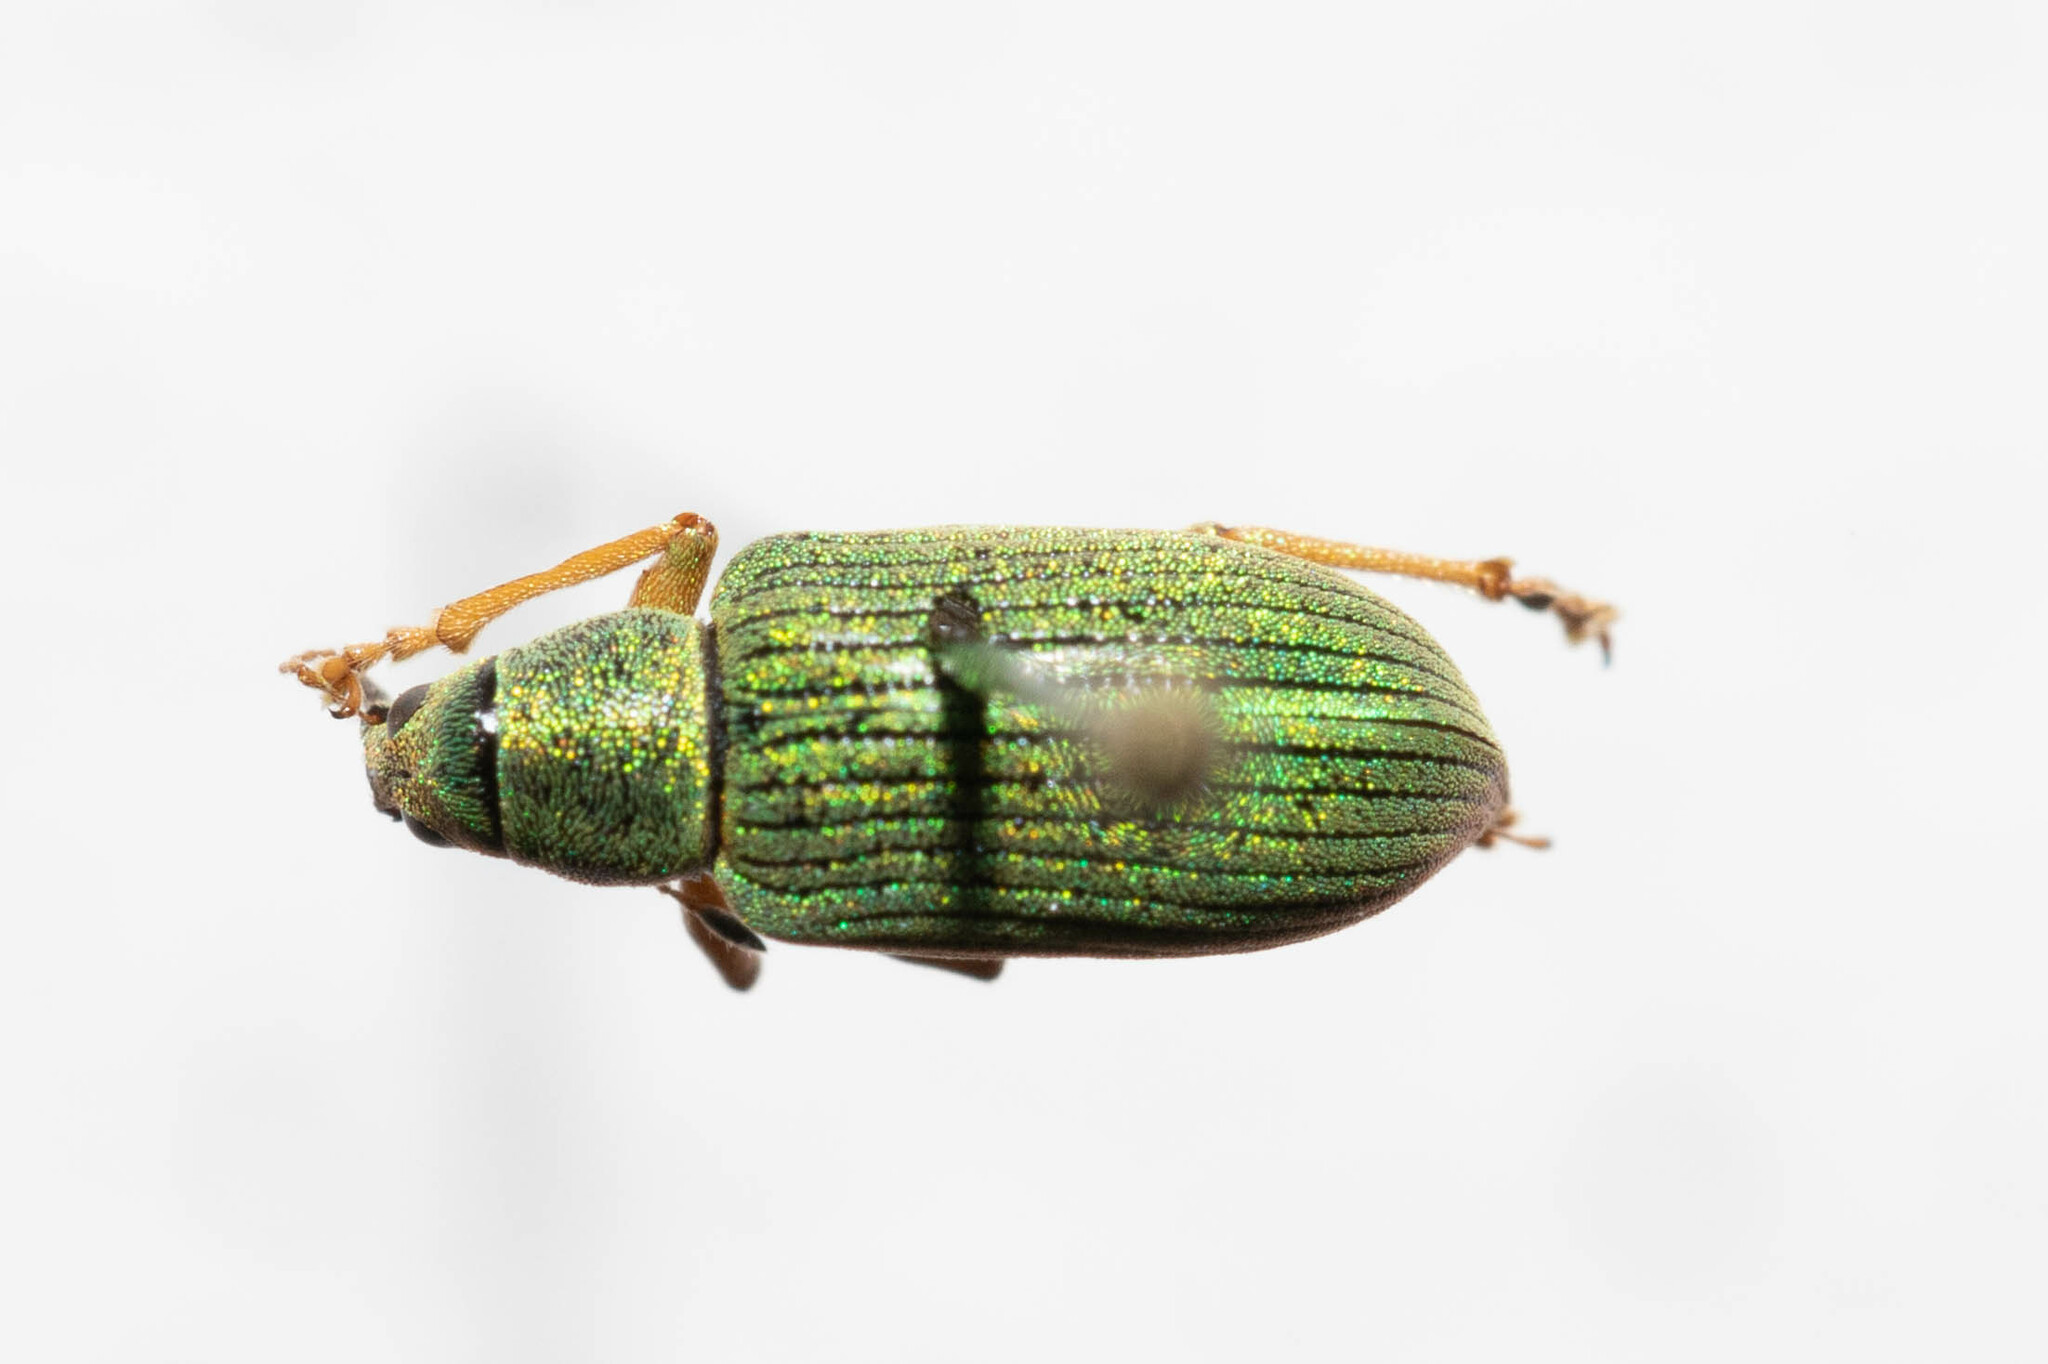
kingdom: Animalia
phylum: Arthropoda
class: Insecta
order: Coleoptera
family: Curculionidae
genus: Polydrusus
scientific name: Polydrusus formosus
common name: Weevil
